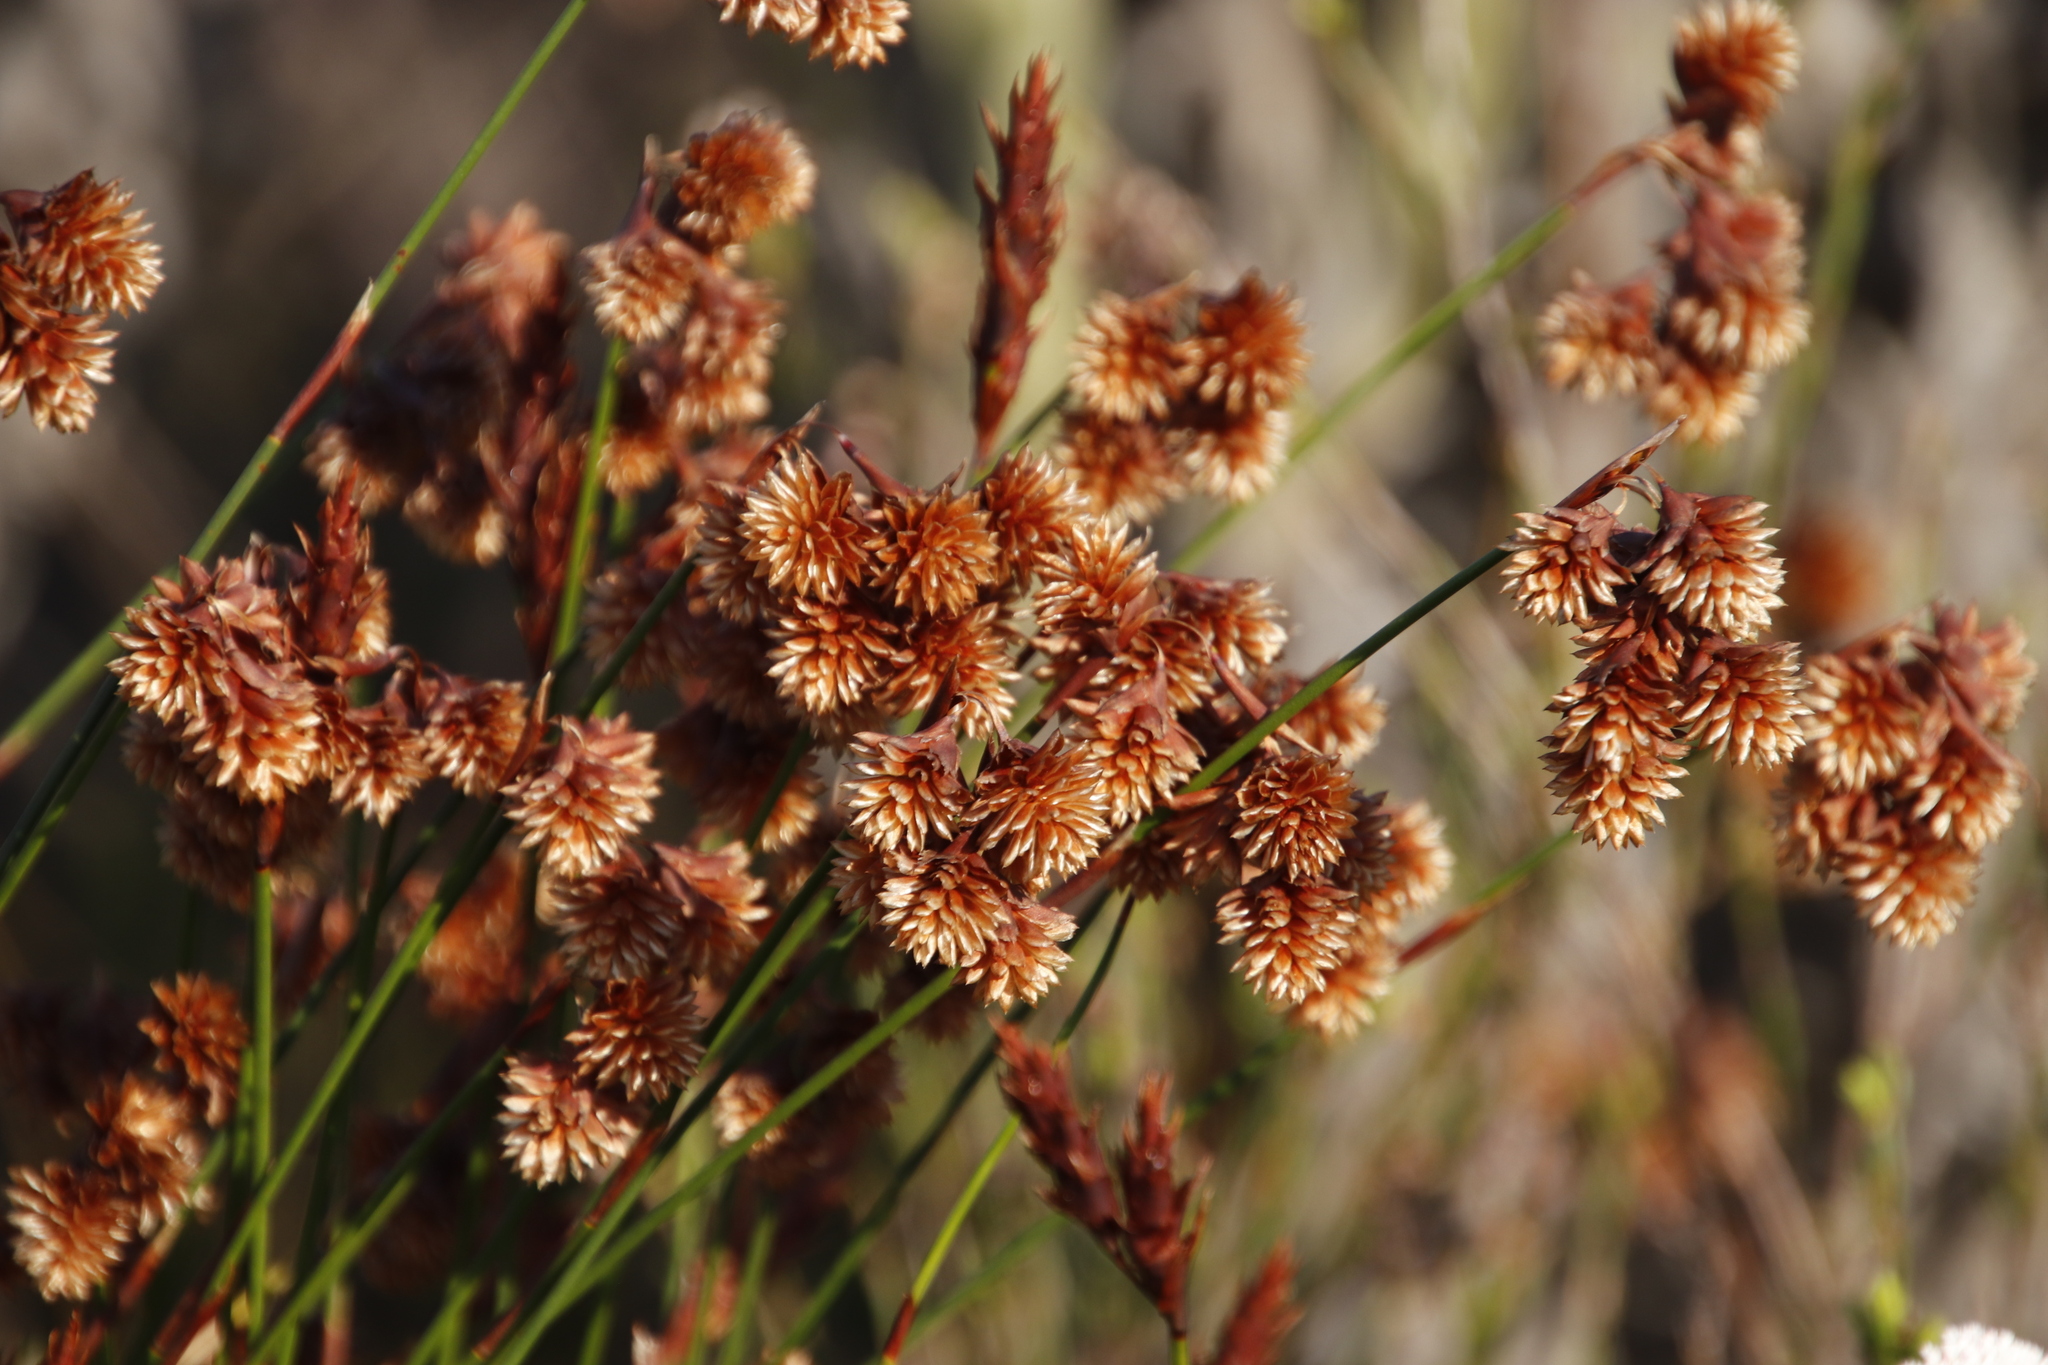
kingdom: Plantae
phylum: Tracheophyta
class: Liliopsida
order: Poales
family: Restionaceae
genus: Staberoha
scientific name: Staberoha banksii
